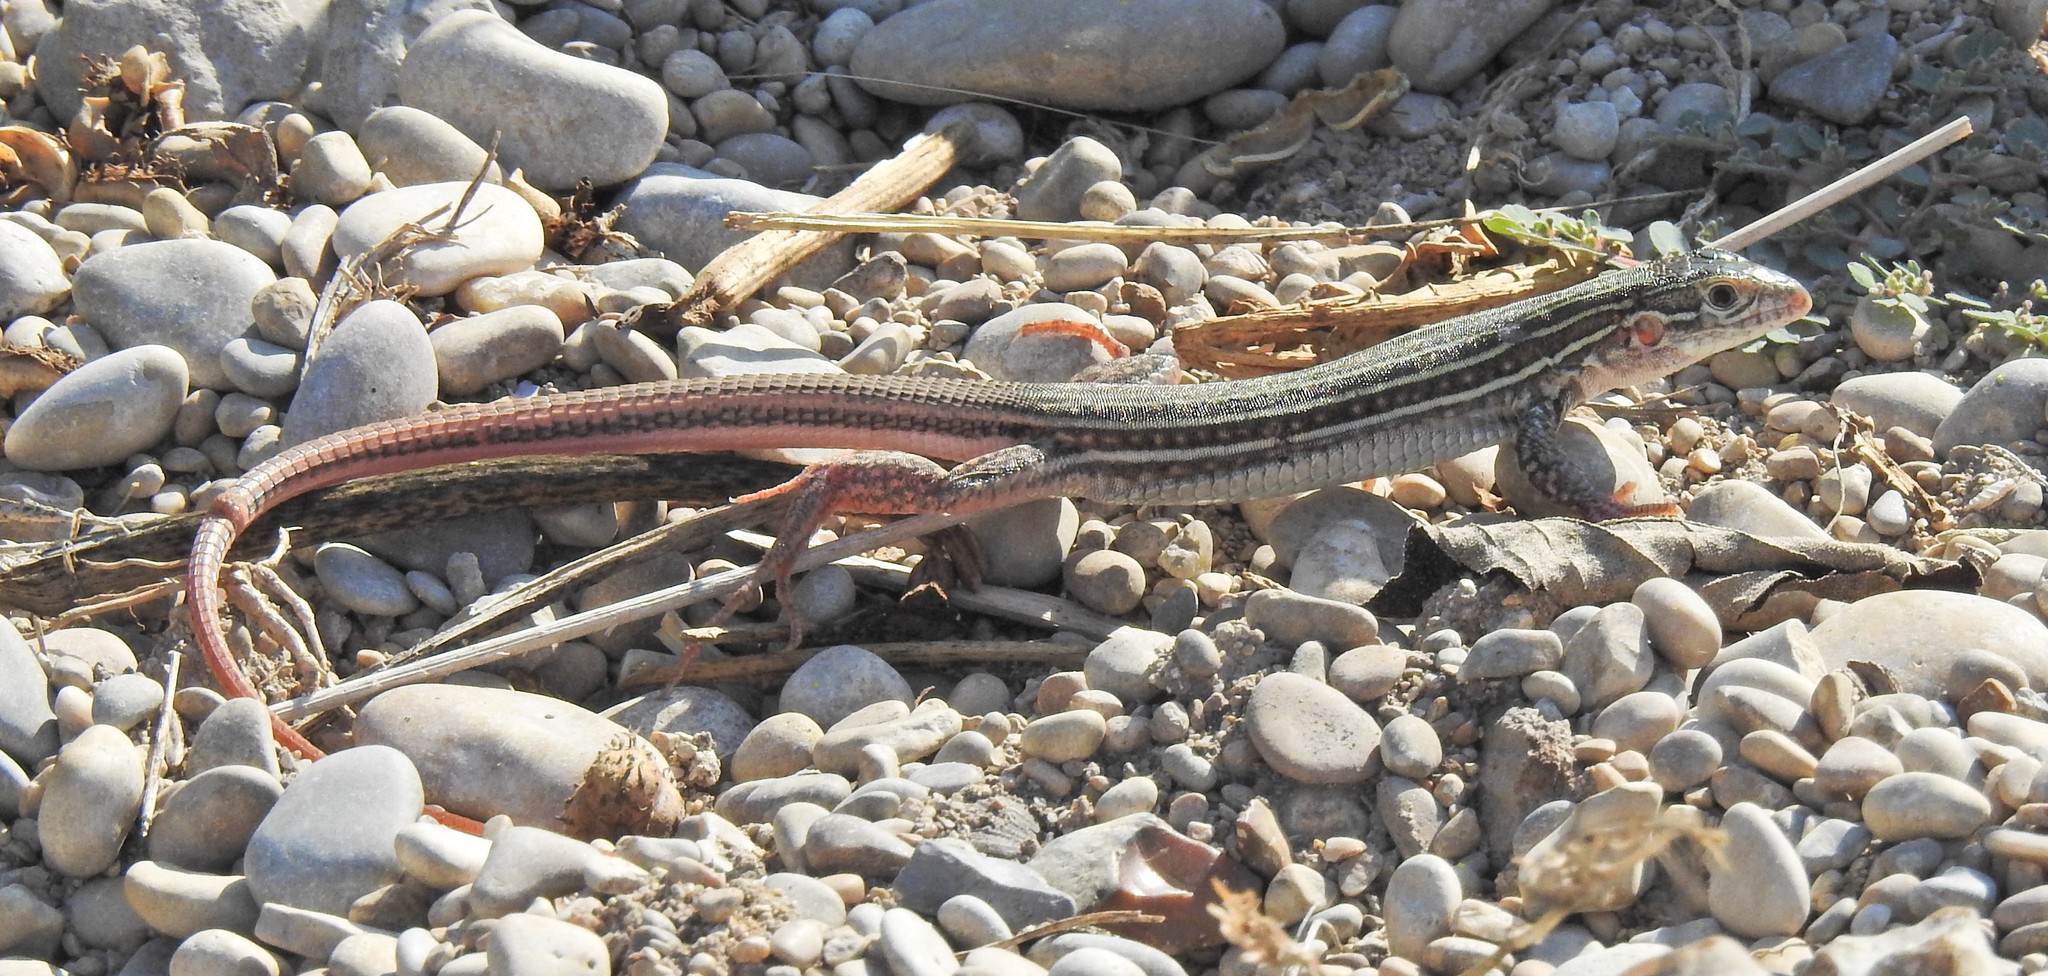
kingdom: Animalia
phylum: Chordata
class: Squamata
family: Teiidae
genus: Aspidoscelis
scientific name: Aspidoscelis gularis
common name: Eastern spotted whiptail
